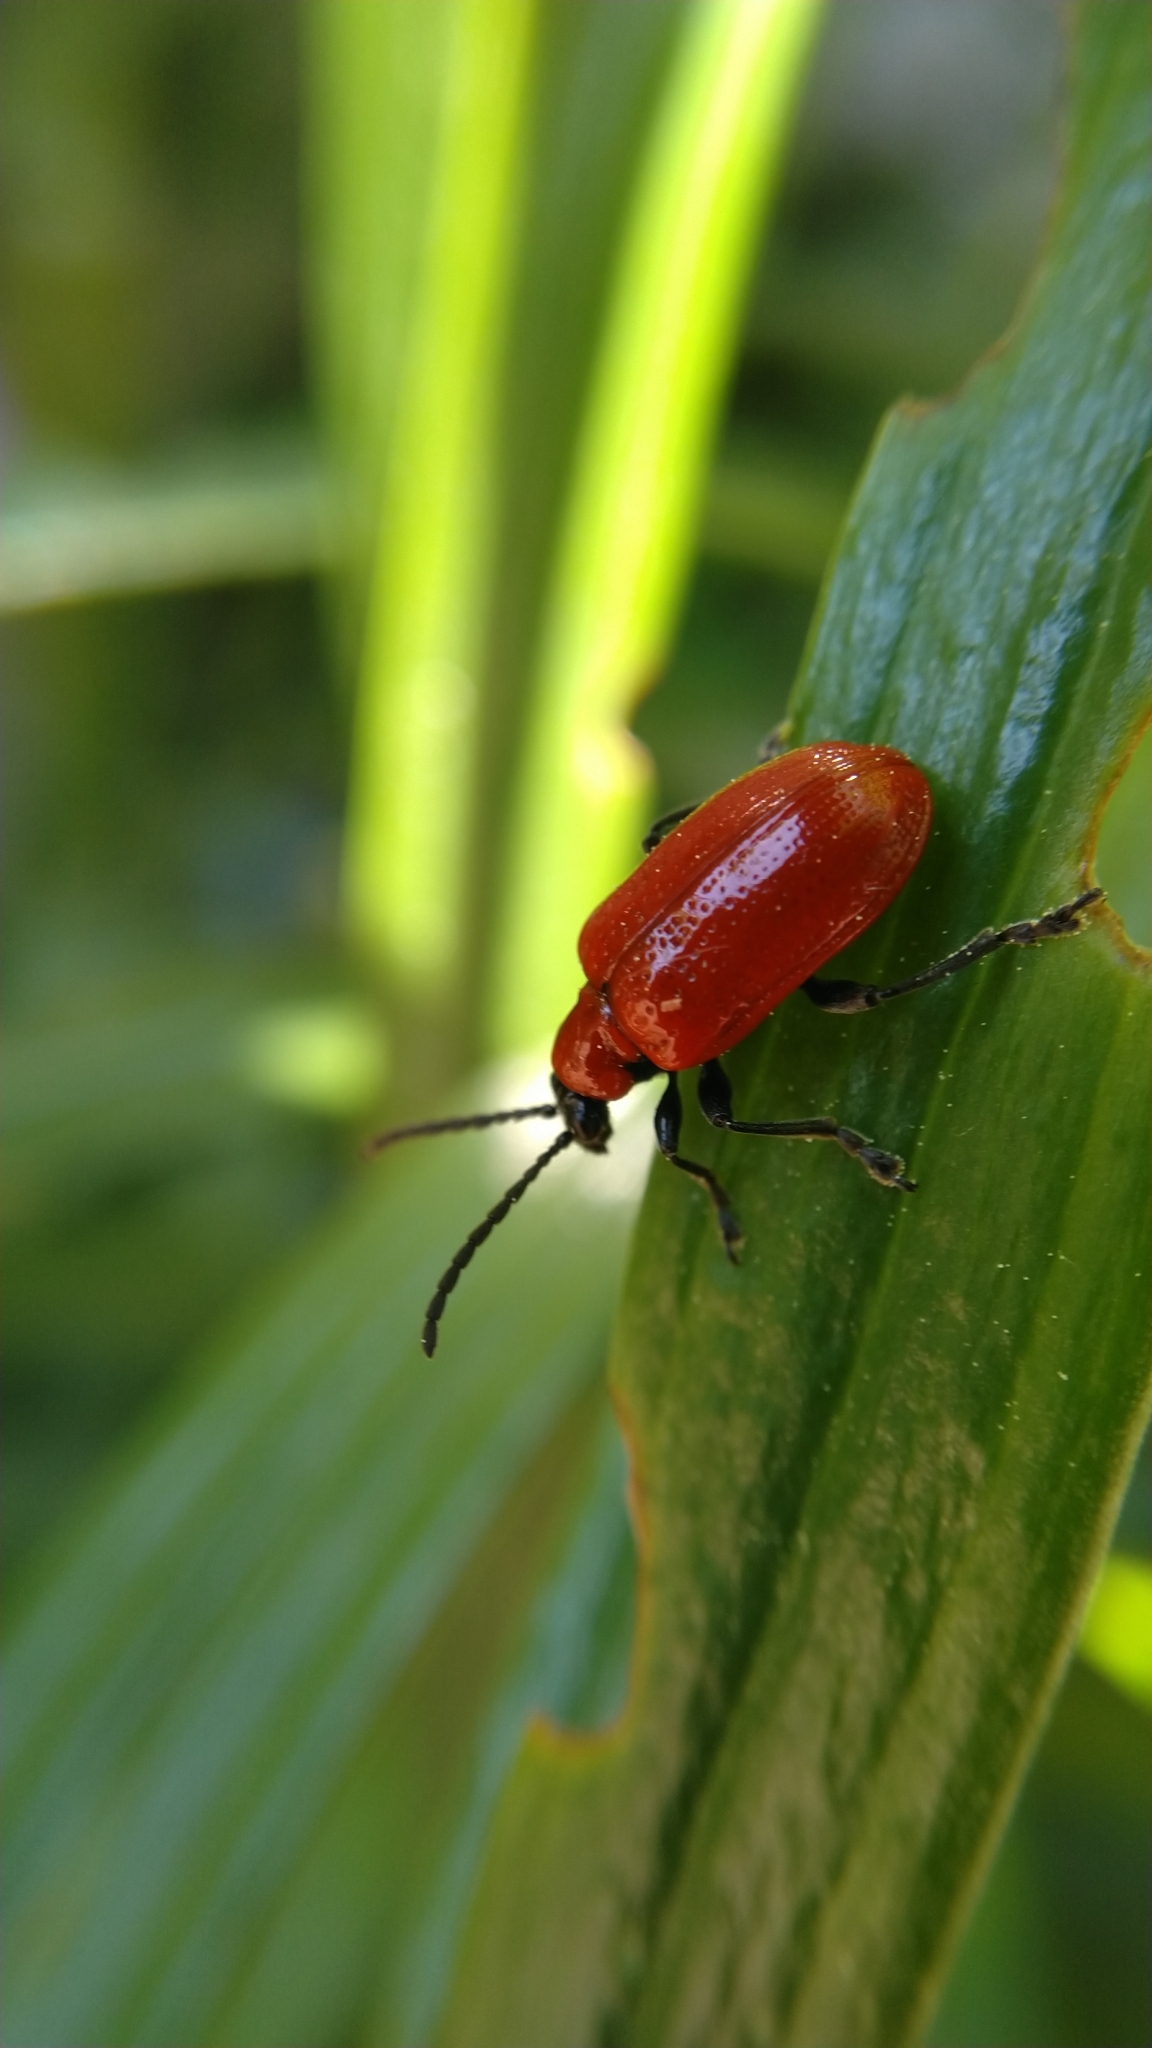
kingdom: Animalia
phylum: Arthropoda
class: Insecta
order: Coleoptera
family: Chrysomelidae
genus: Lilioceris
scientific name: Lilioceris lilii
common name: Lily beetle
